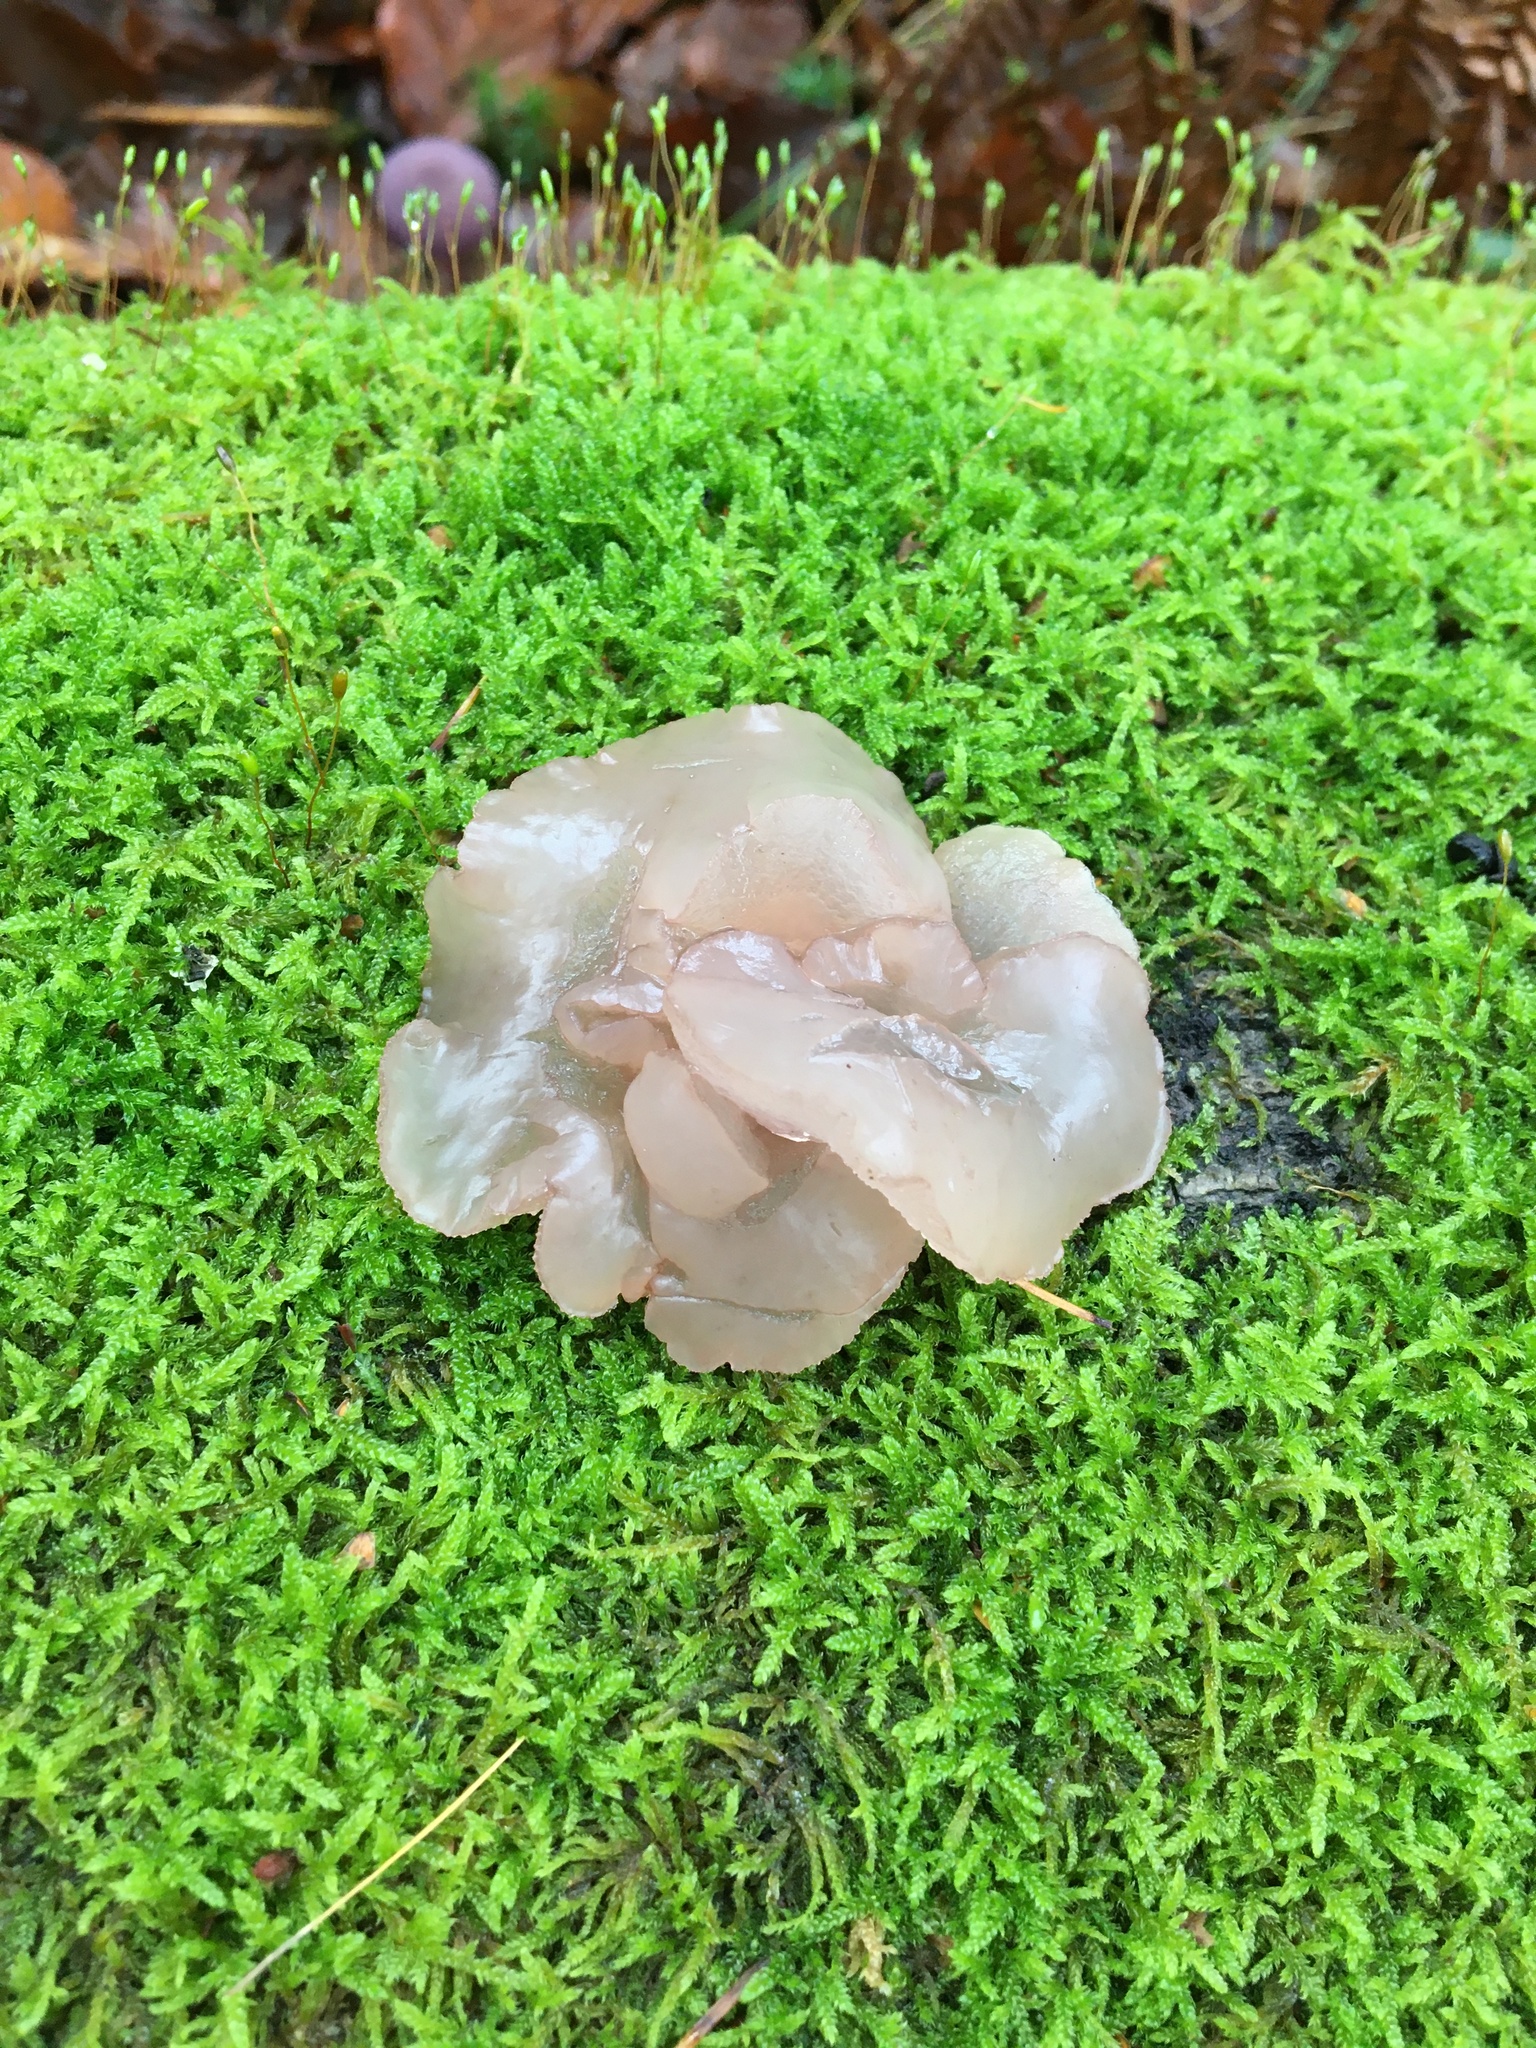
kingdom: Fungi
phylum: Ascomycota
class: Leotiomycetes
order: Helotiales
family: Gelatinodiscaceae
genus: Neobulgaria
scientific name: Neobulgaria pura
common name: Beech jelly-disc
